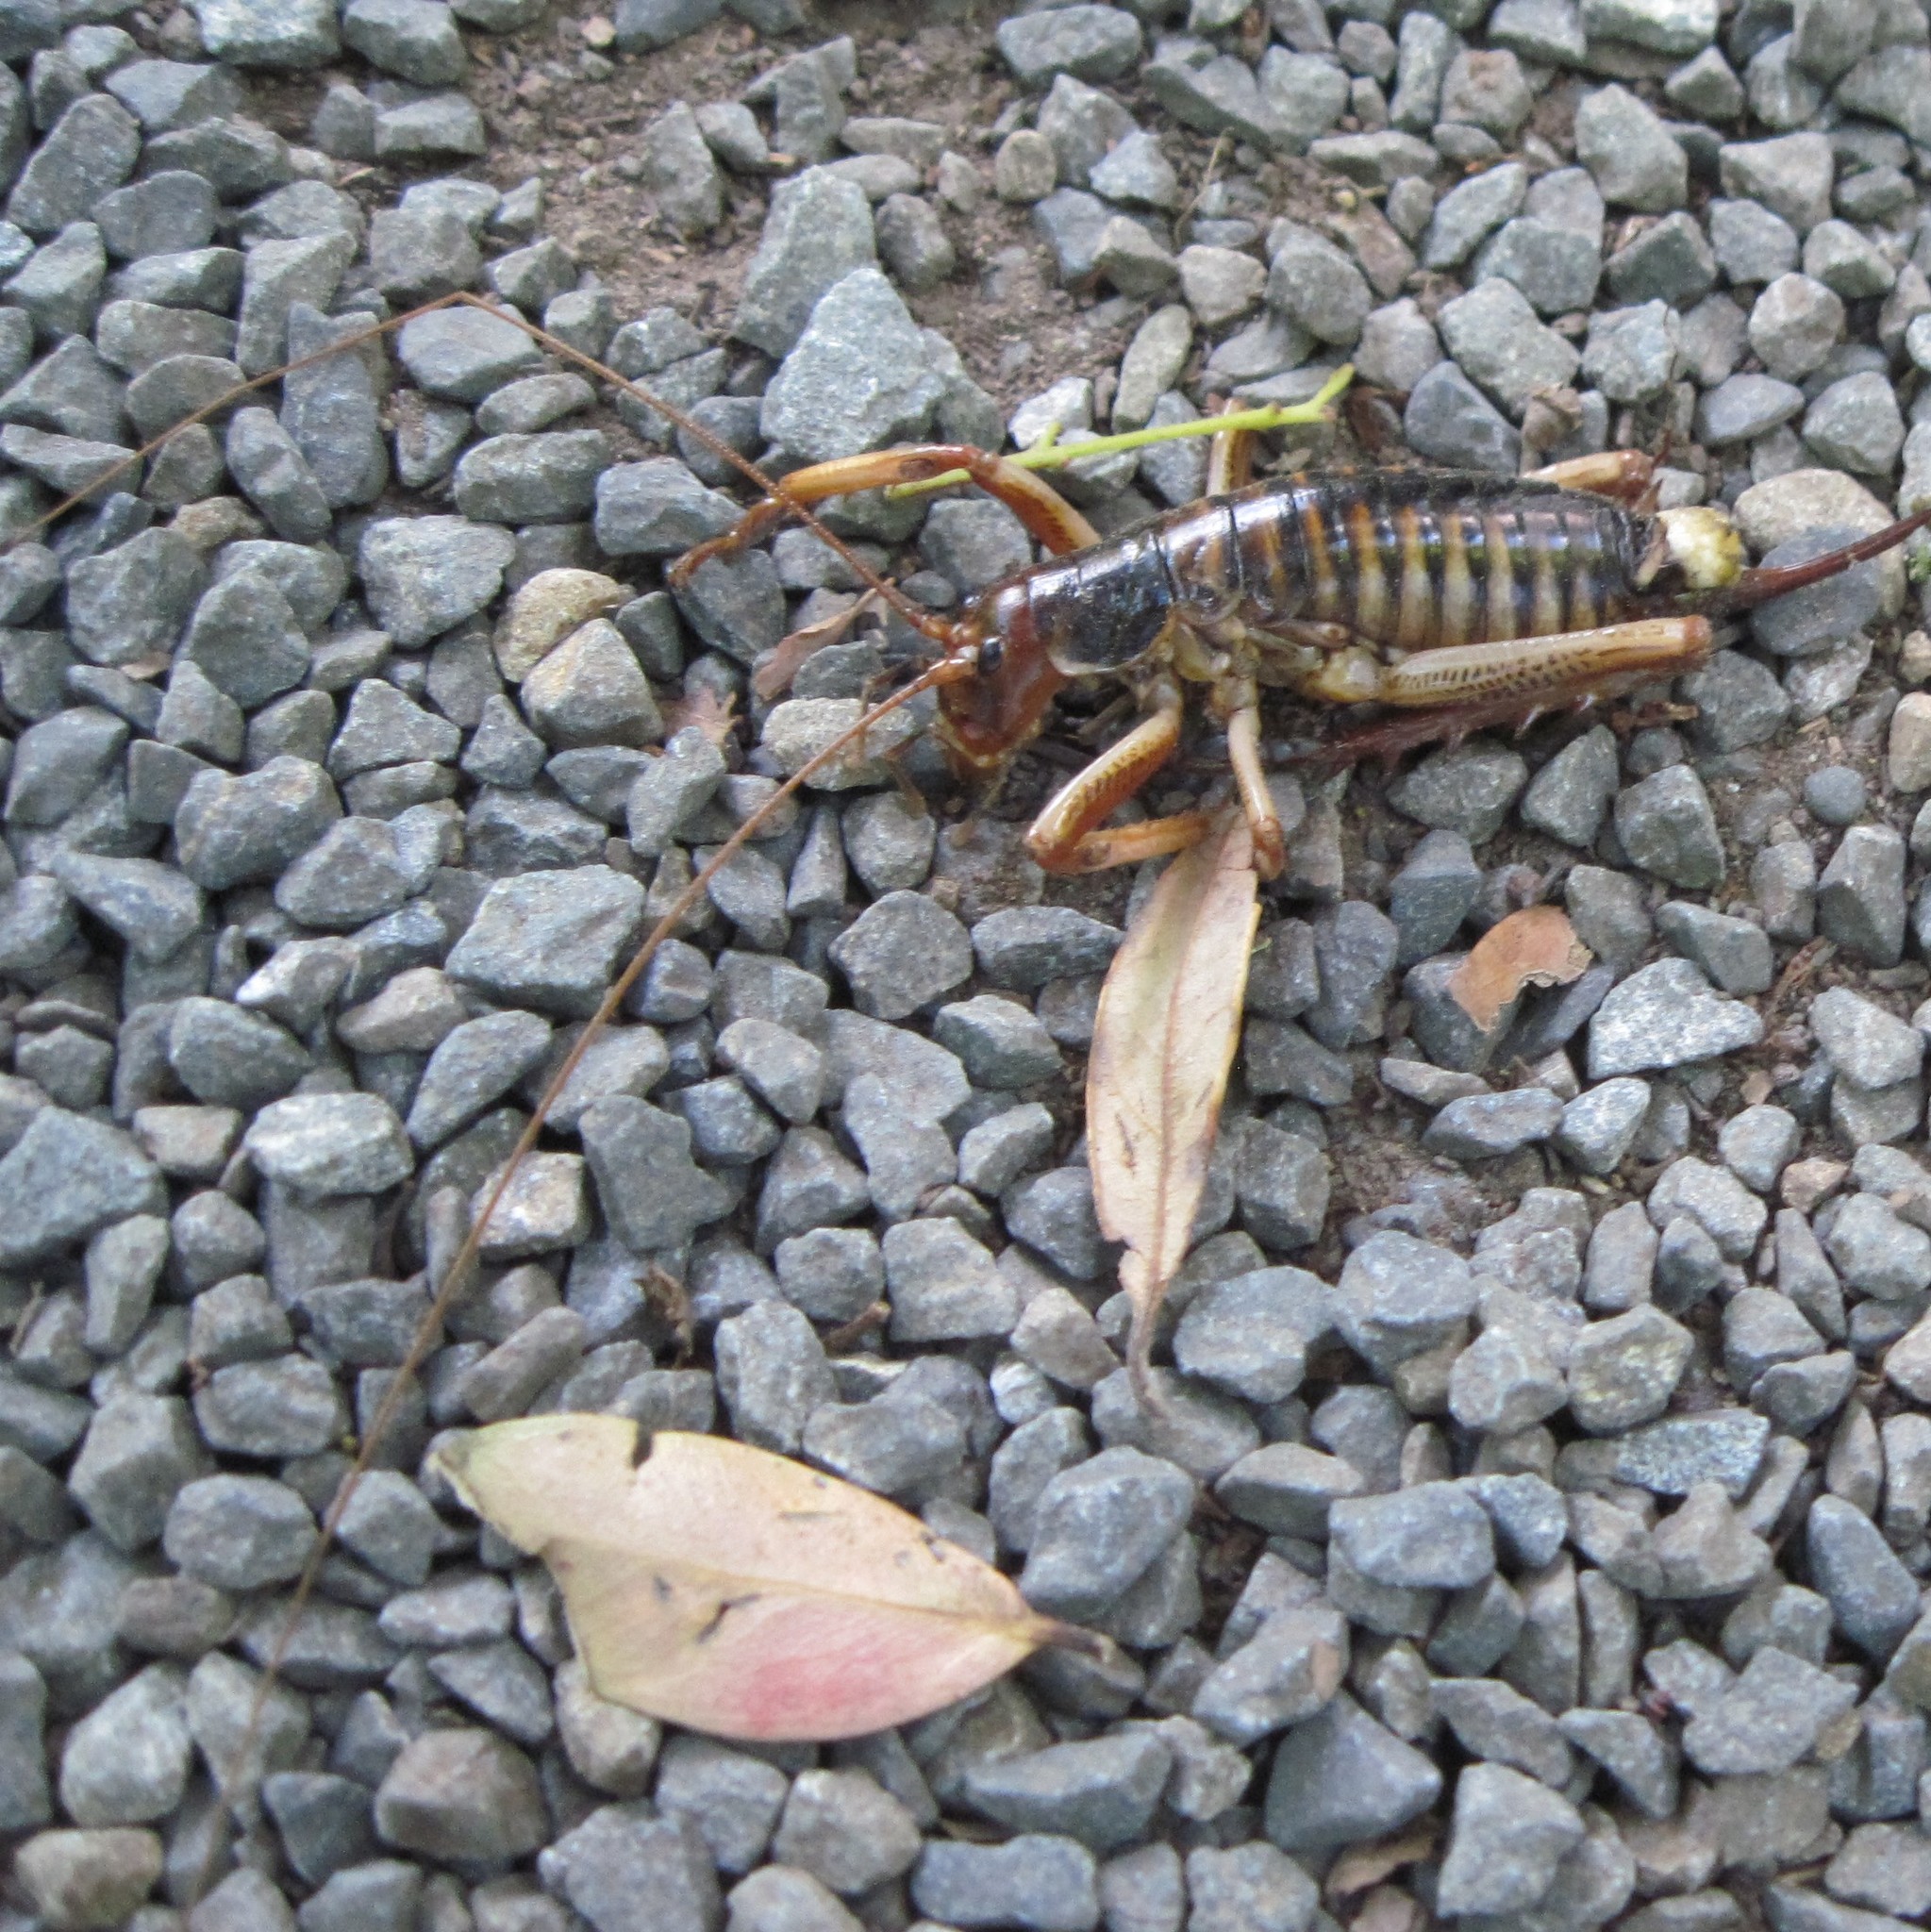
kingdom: Animalia
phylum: Arthropoda
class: Insecta
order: Orthoptera
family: Anostostomatidae
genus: Hemideina
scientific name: Hemideina crassidens
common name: Wellington tree weta
